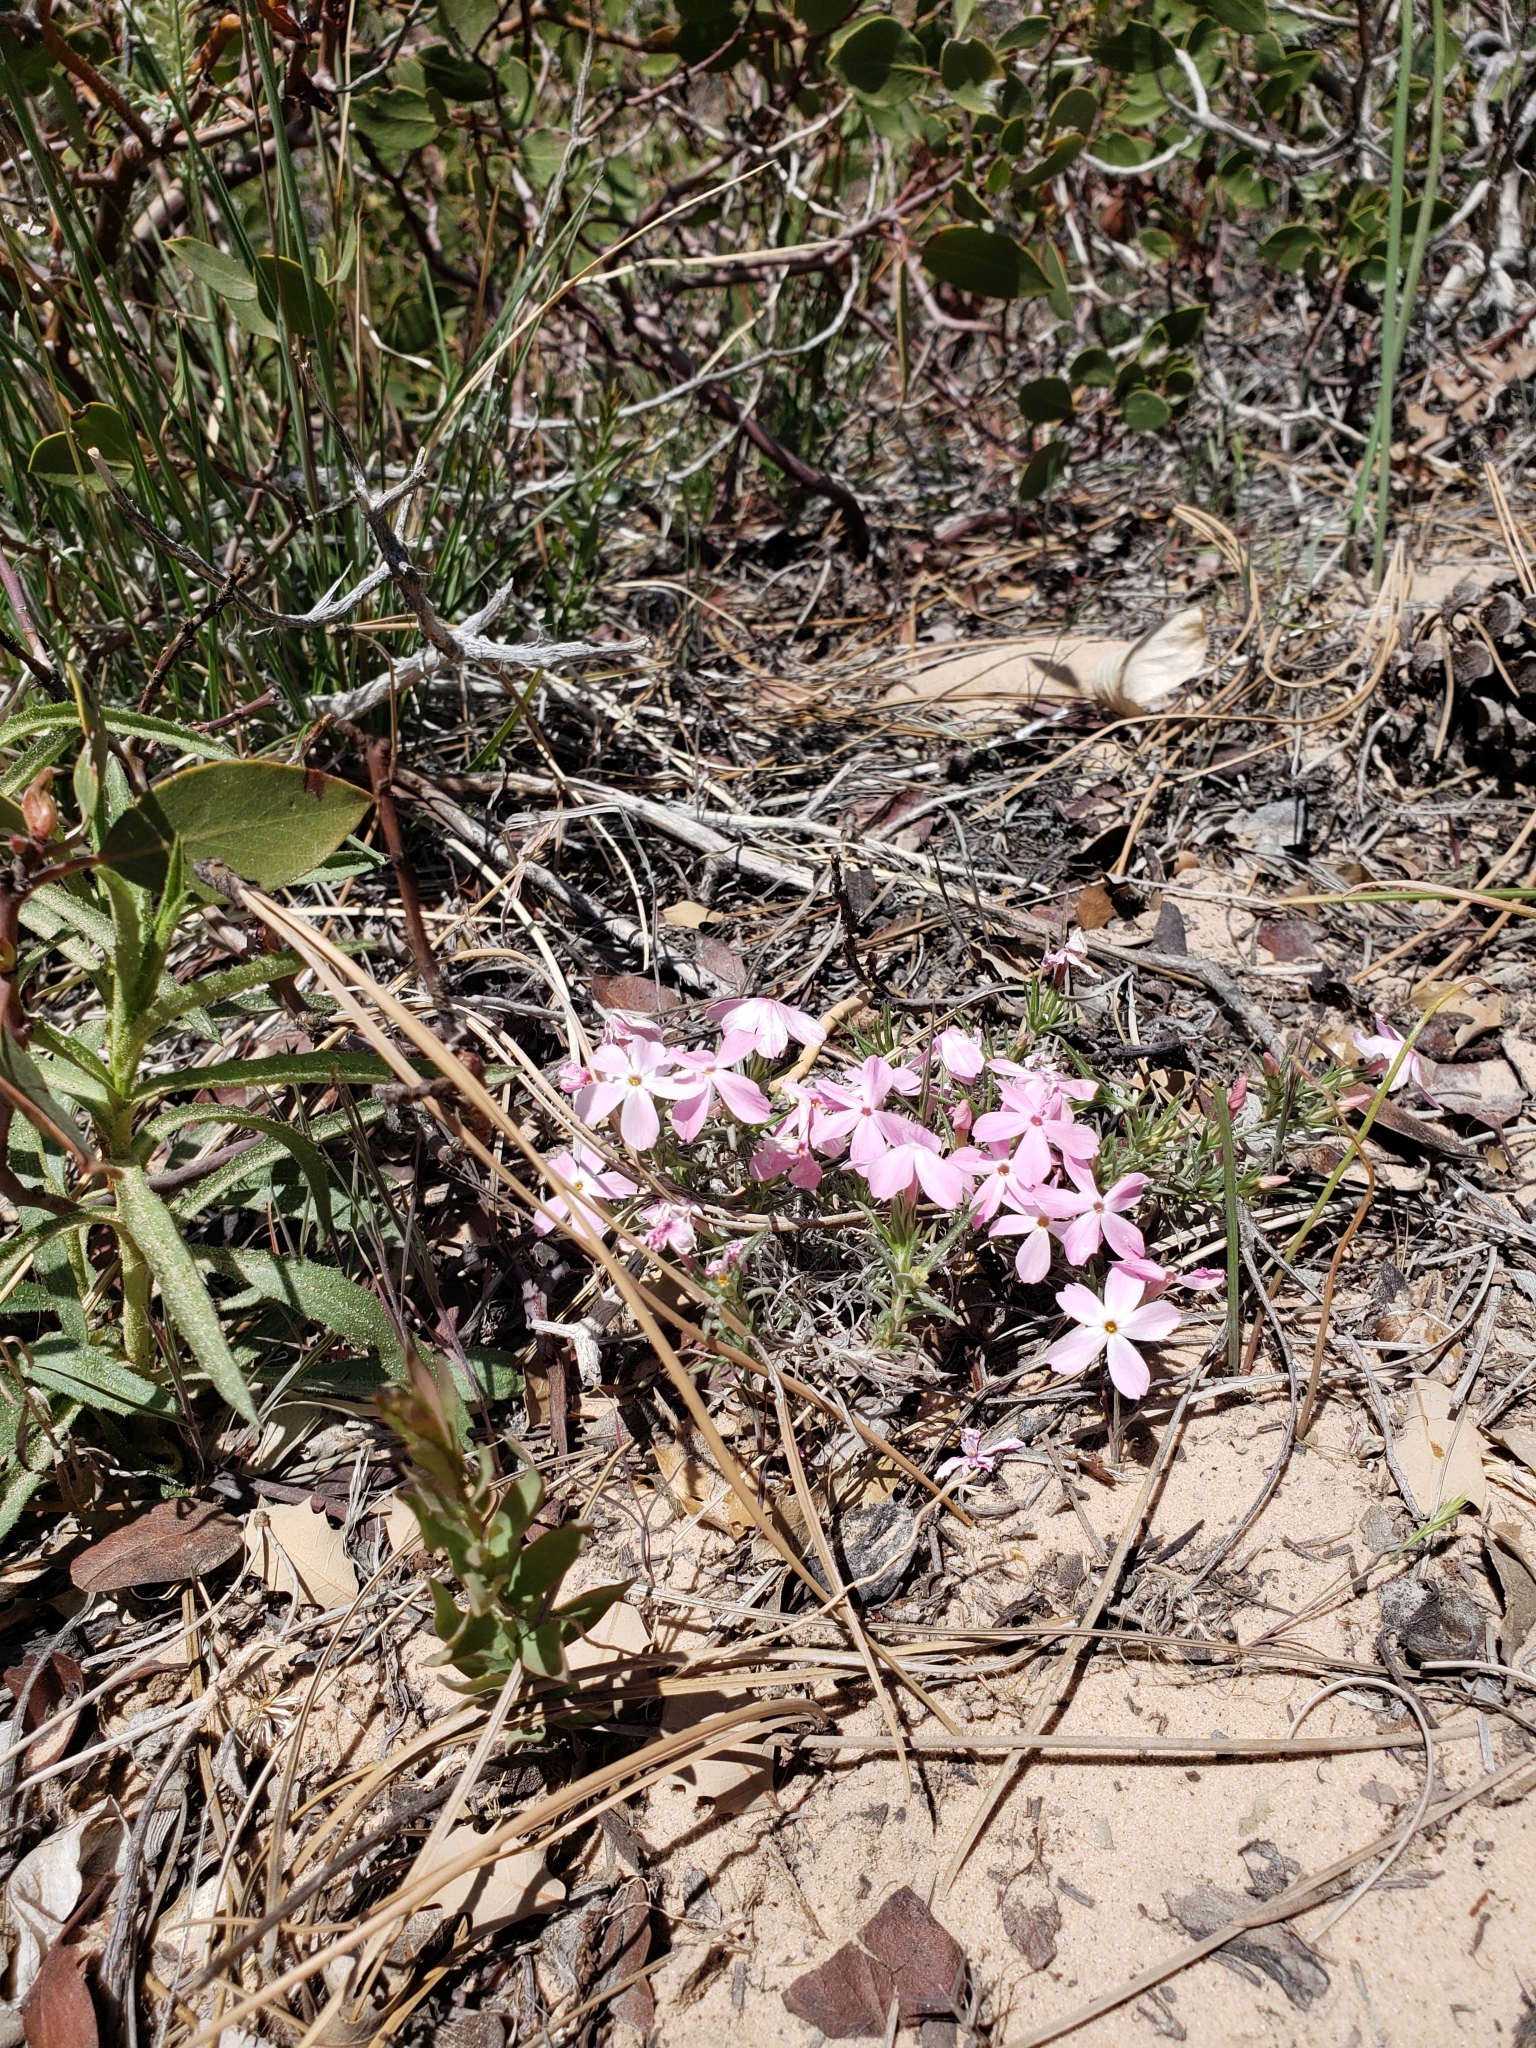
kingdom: Plantae
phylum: Tracheophyta
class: Magnoliopsida
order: Ericales
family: Polemoniaceae
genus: Phlox
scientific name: Phlox austromontana
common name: Desert phlox
